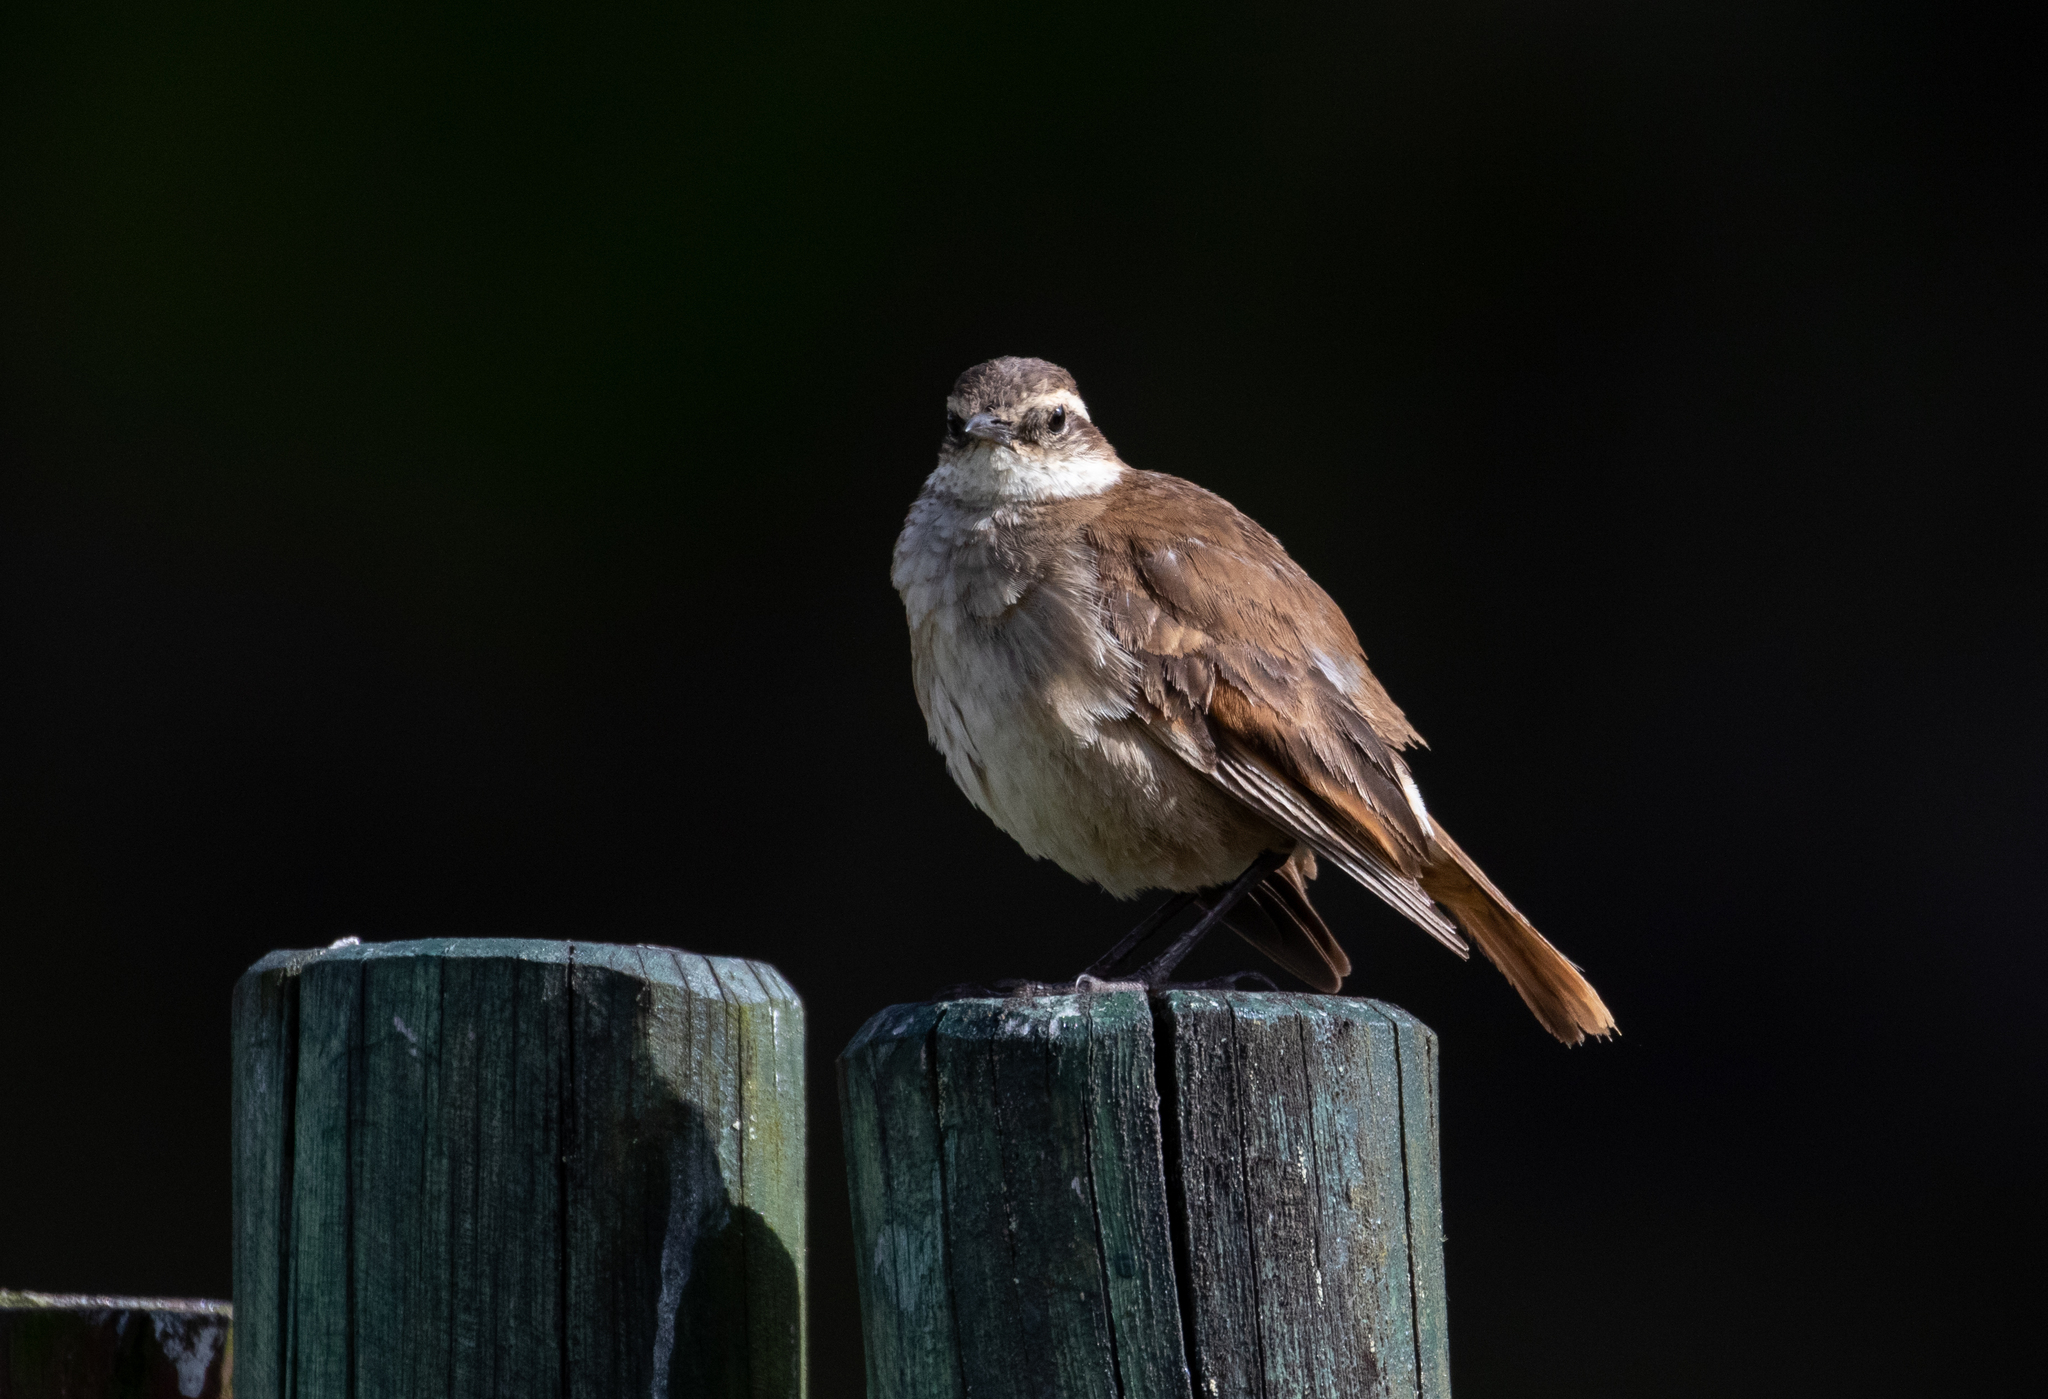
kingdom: Animalia
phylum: Chordata
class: Aves
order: Passeriformes
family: Furnariidae
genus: Cinclodes
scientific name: Cinclodes albidiventris
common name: Chestnut-winged cinclodes
